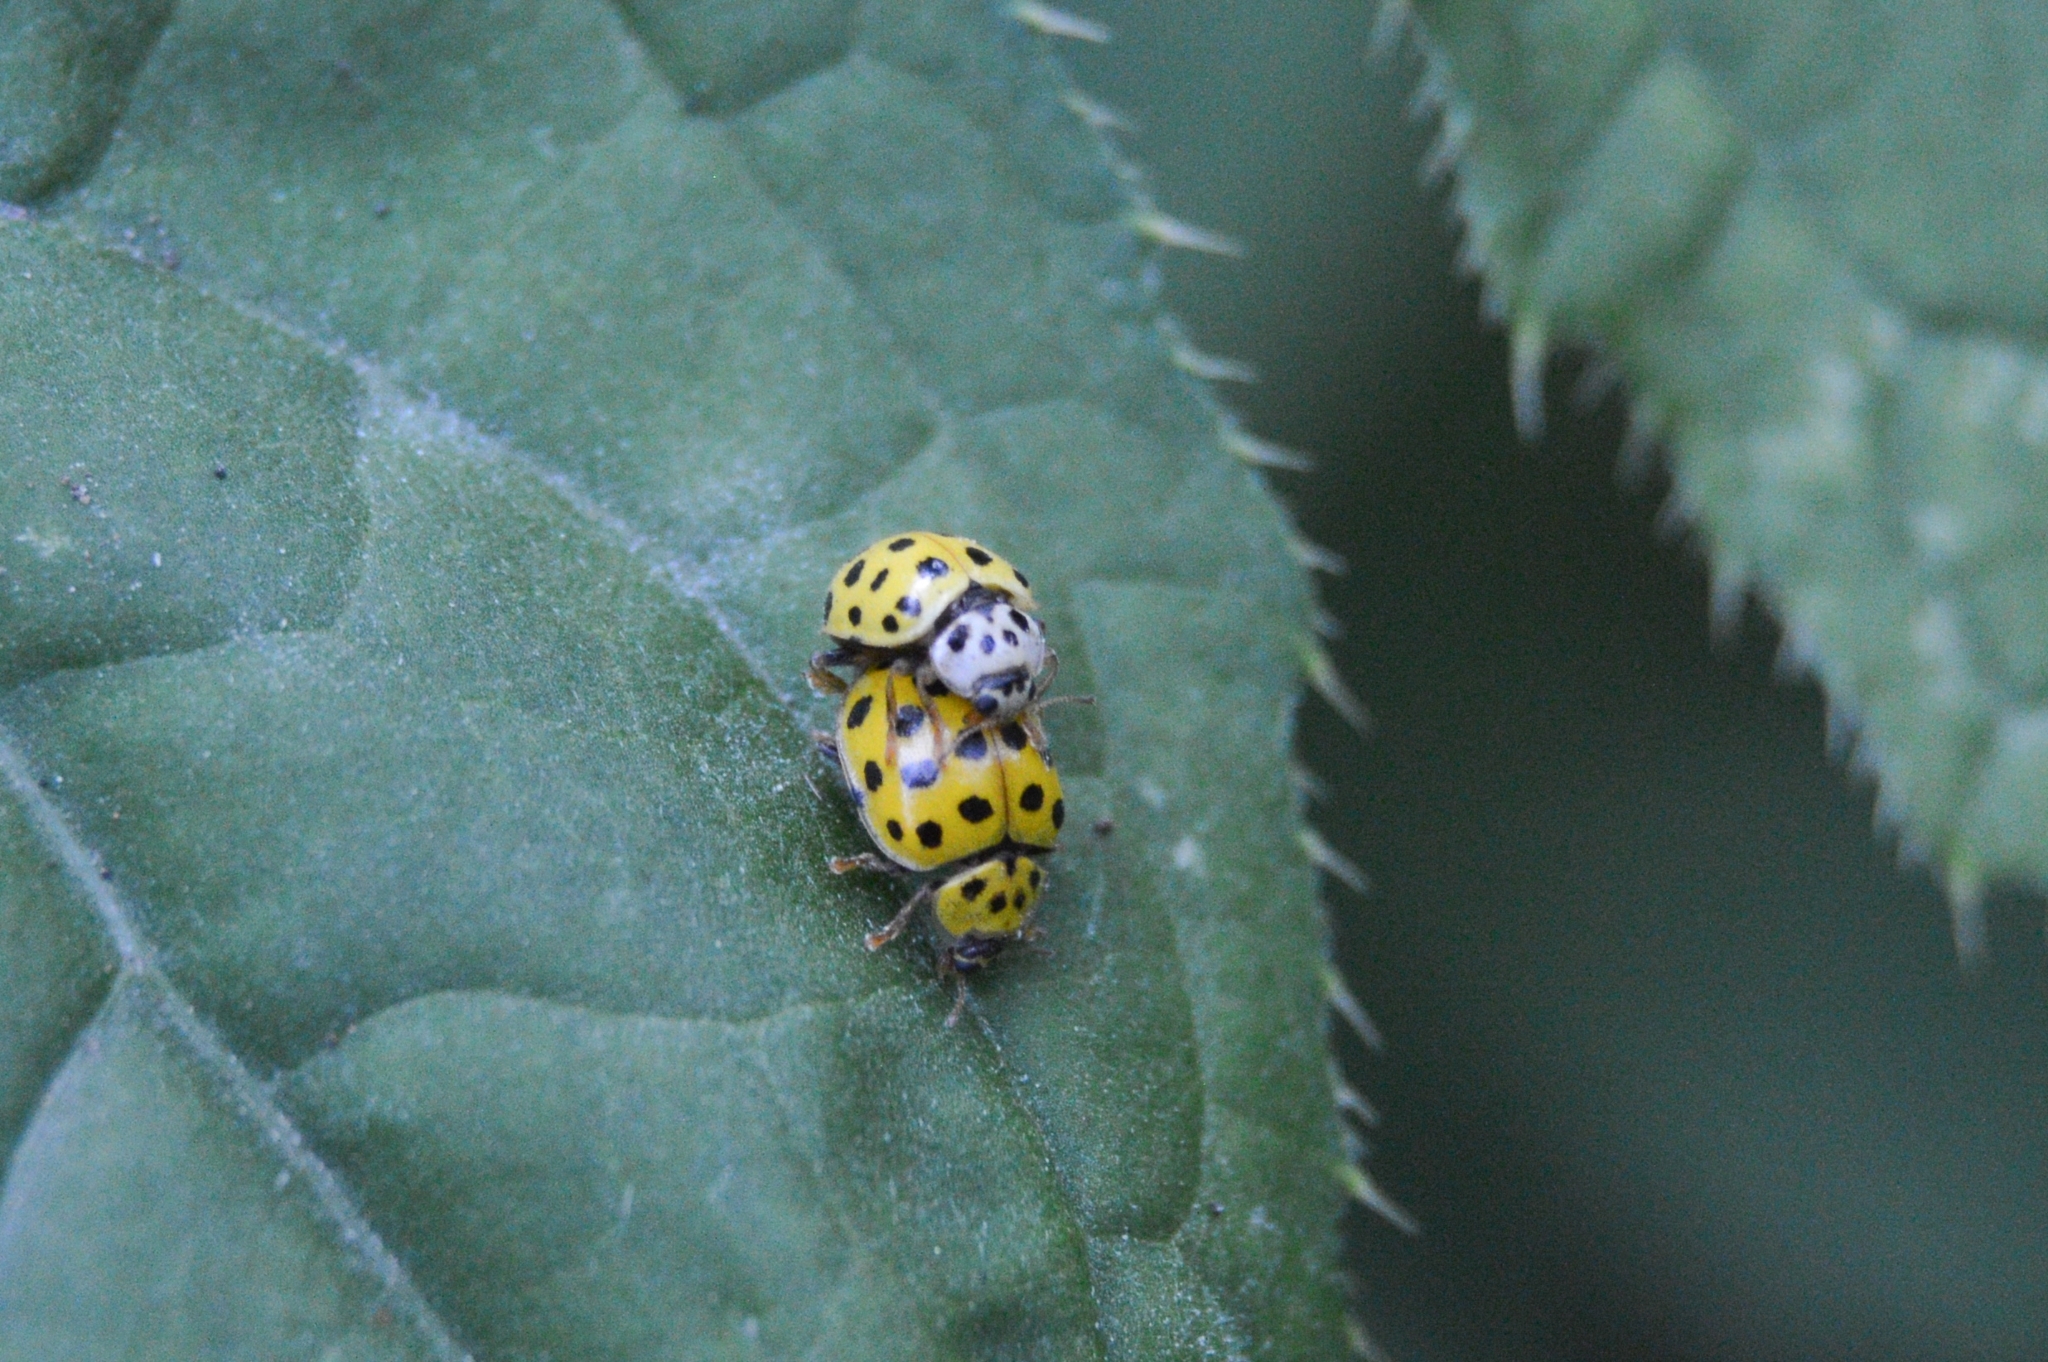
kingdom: Animalia
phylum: Arthropoda
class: Insecta
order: Coleoptera
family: Coccinellidae
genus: Psyllobora
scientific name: Psyllobora vigintiduopunctata
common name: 22-spot ladybird
